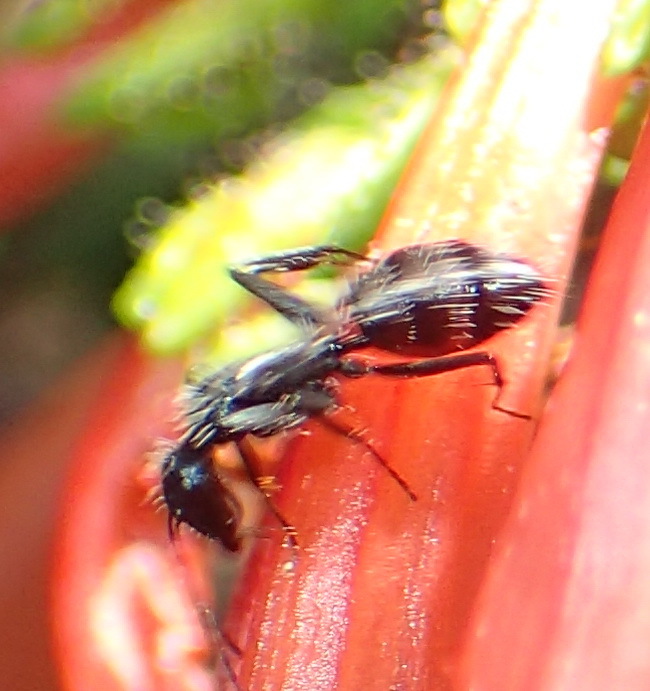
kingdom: Animalia
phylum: Arthropoda
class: Insecta
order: Hymenoptera
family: Formicidae
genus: Camponotus
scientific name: Camponotus niveosetosus
